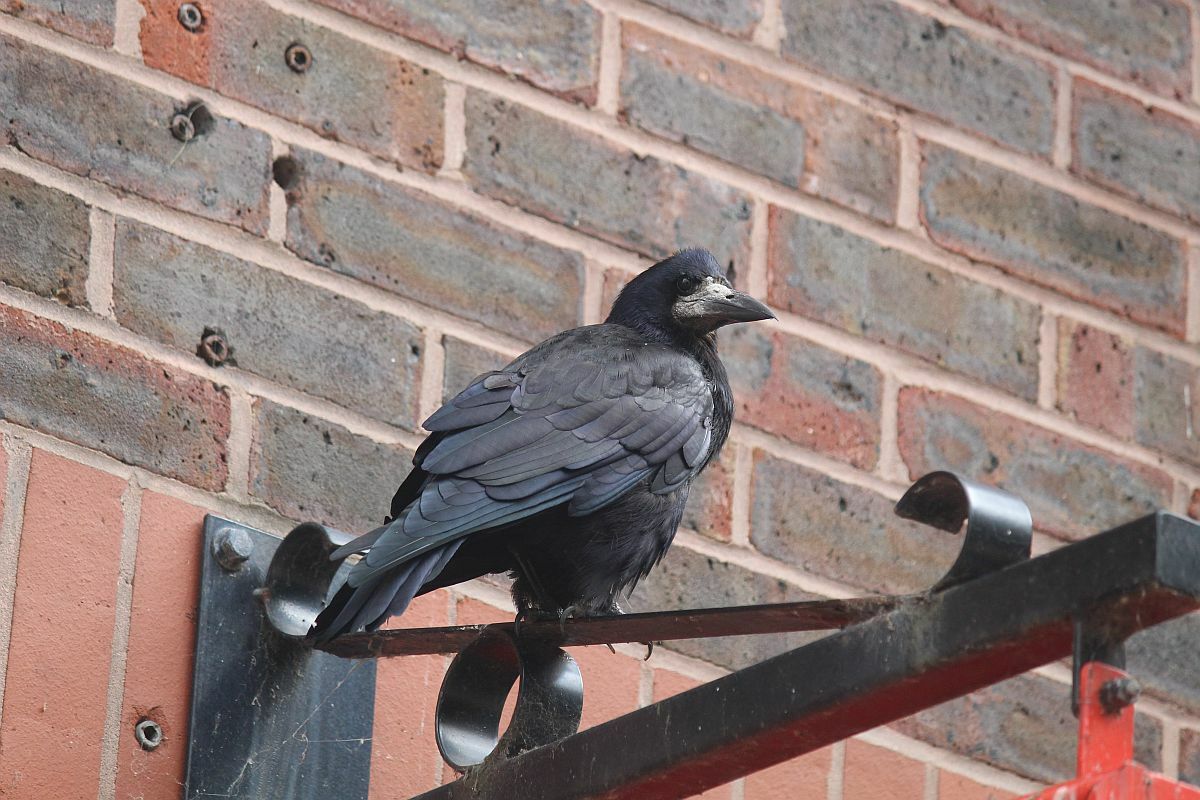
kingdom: Animalia
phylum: Chordata
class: Aves
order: Passeriformes
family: Corvidae
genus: Corvus
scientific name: Corvus frugilegus
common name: Rook
